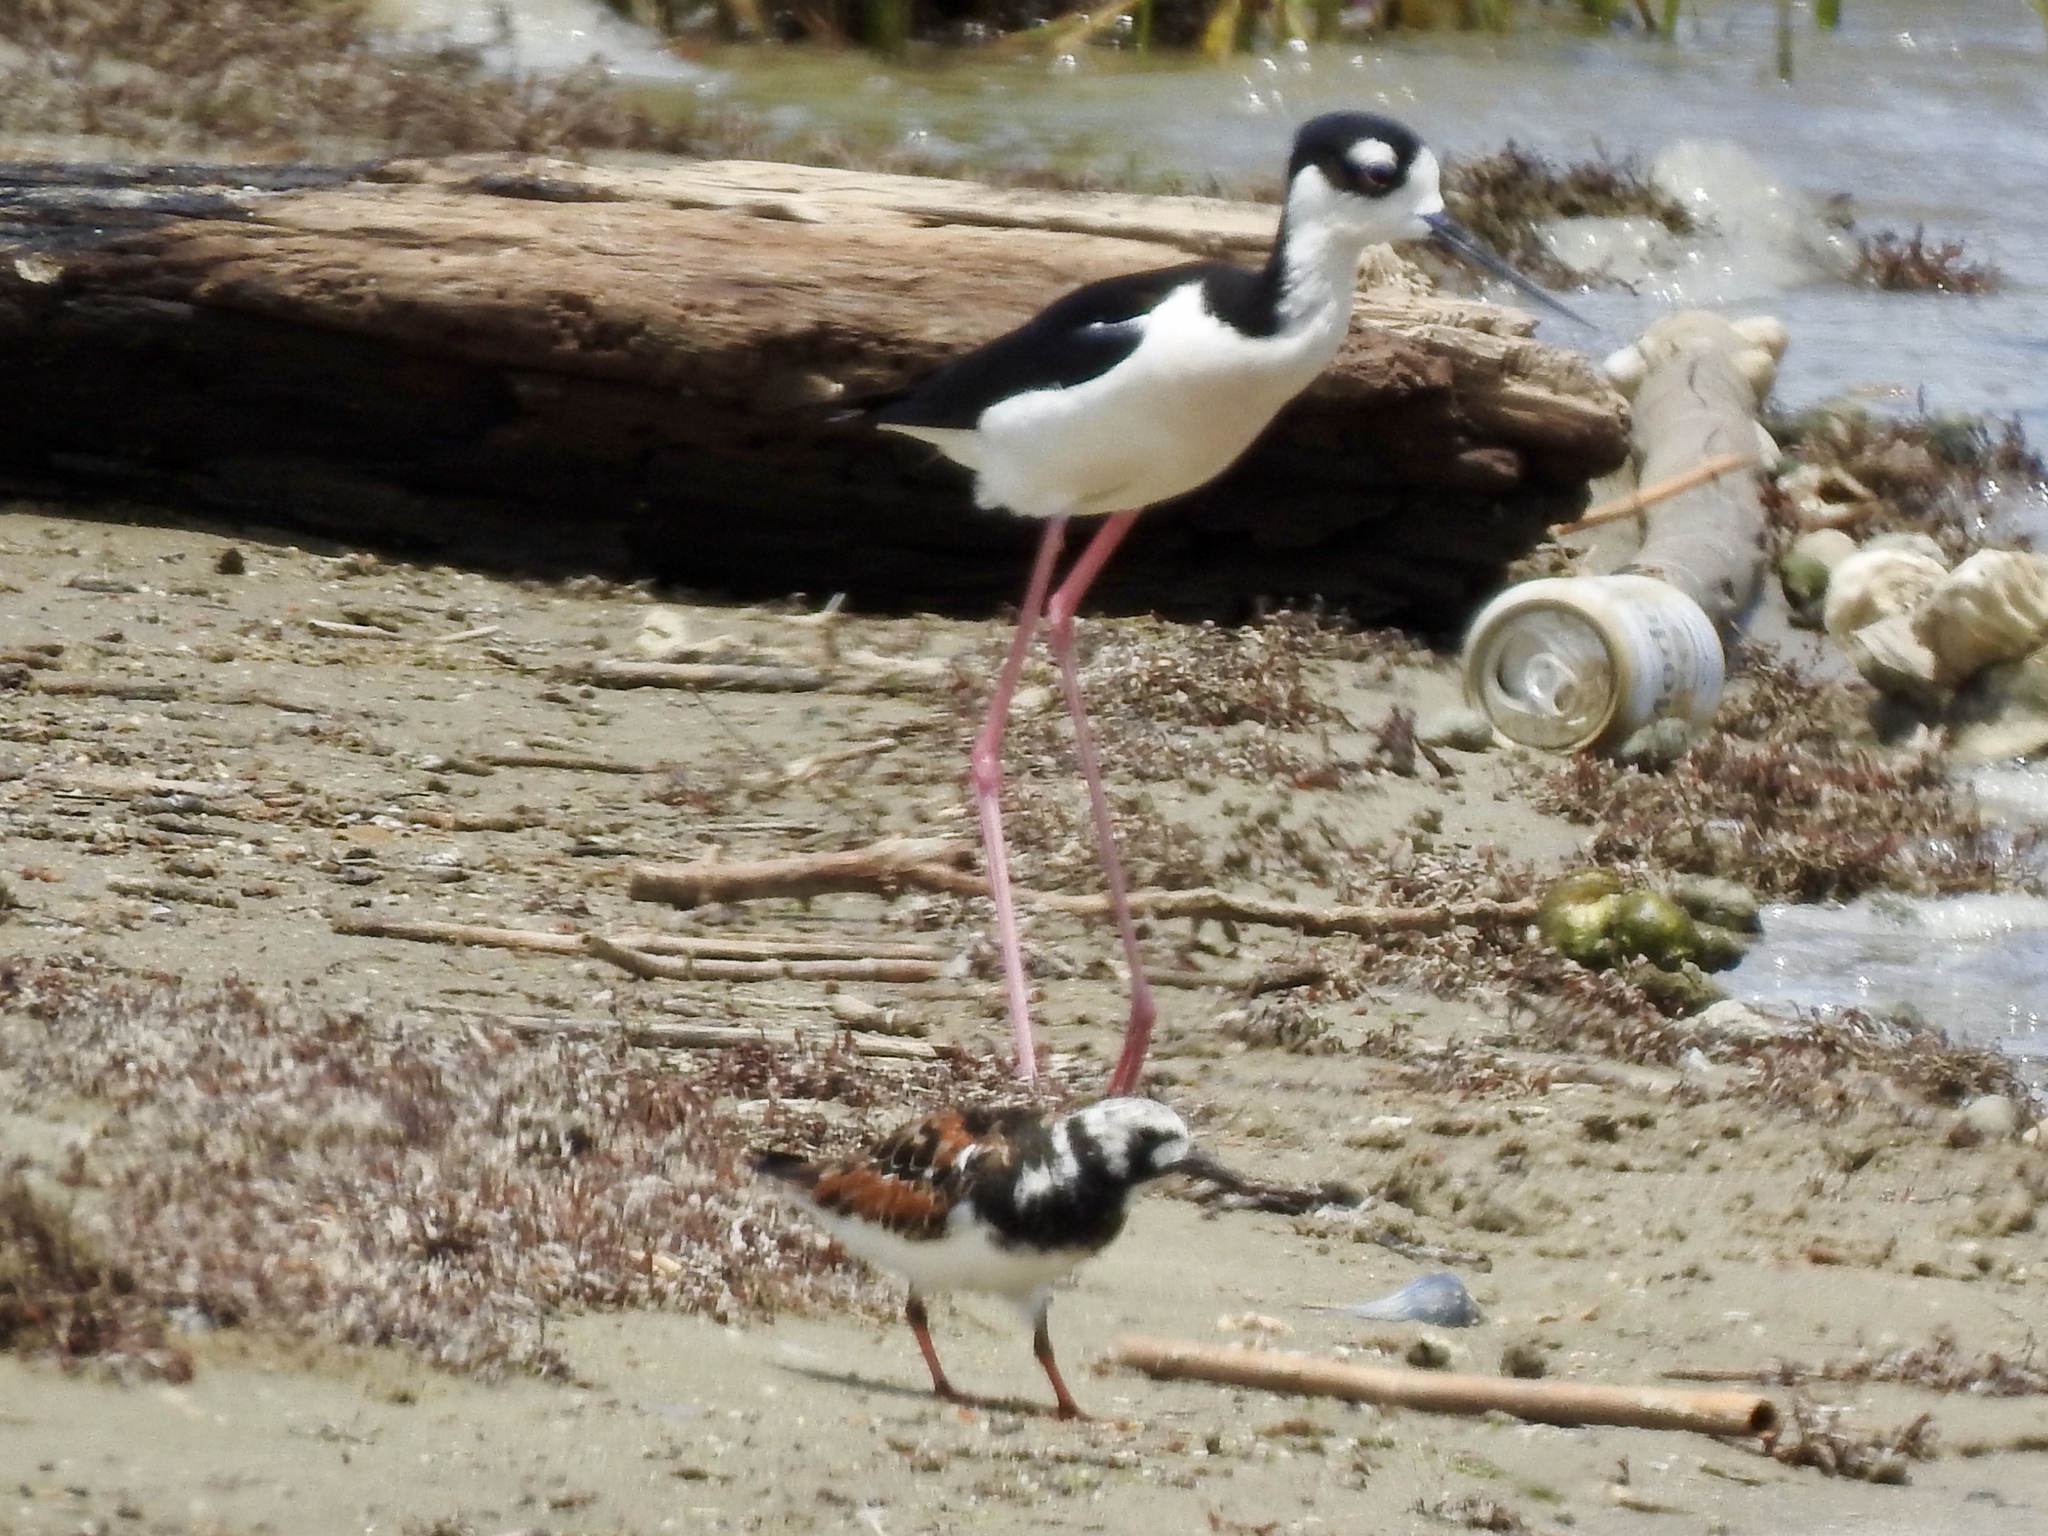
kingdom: Animalia
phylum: Chordata
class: Aves
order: Charadriiformes
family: Recurvirostridae
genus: Himantopus
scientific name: Himantopus mexicanus
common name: Black-necked stilt
